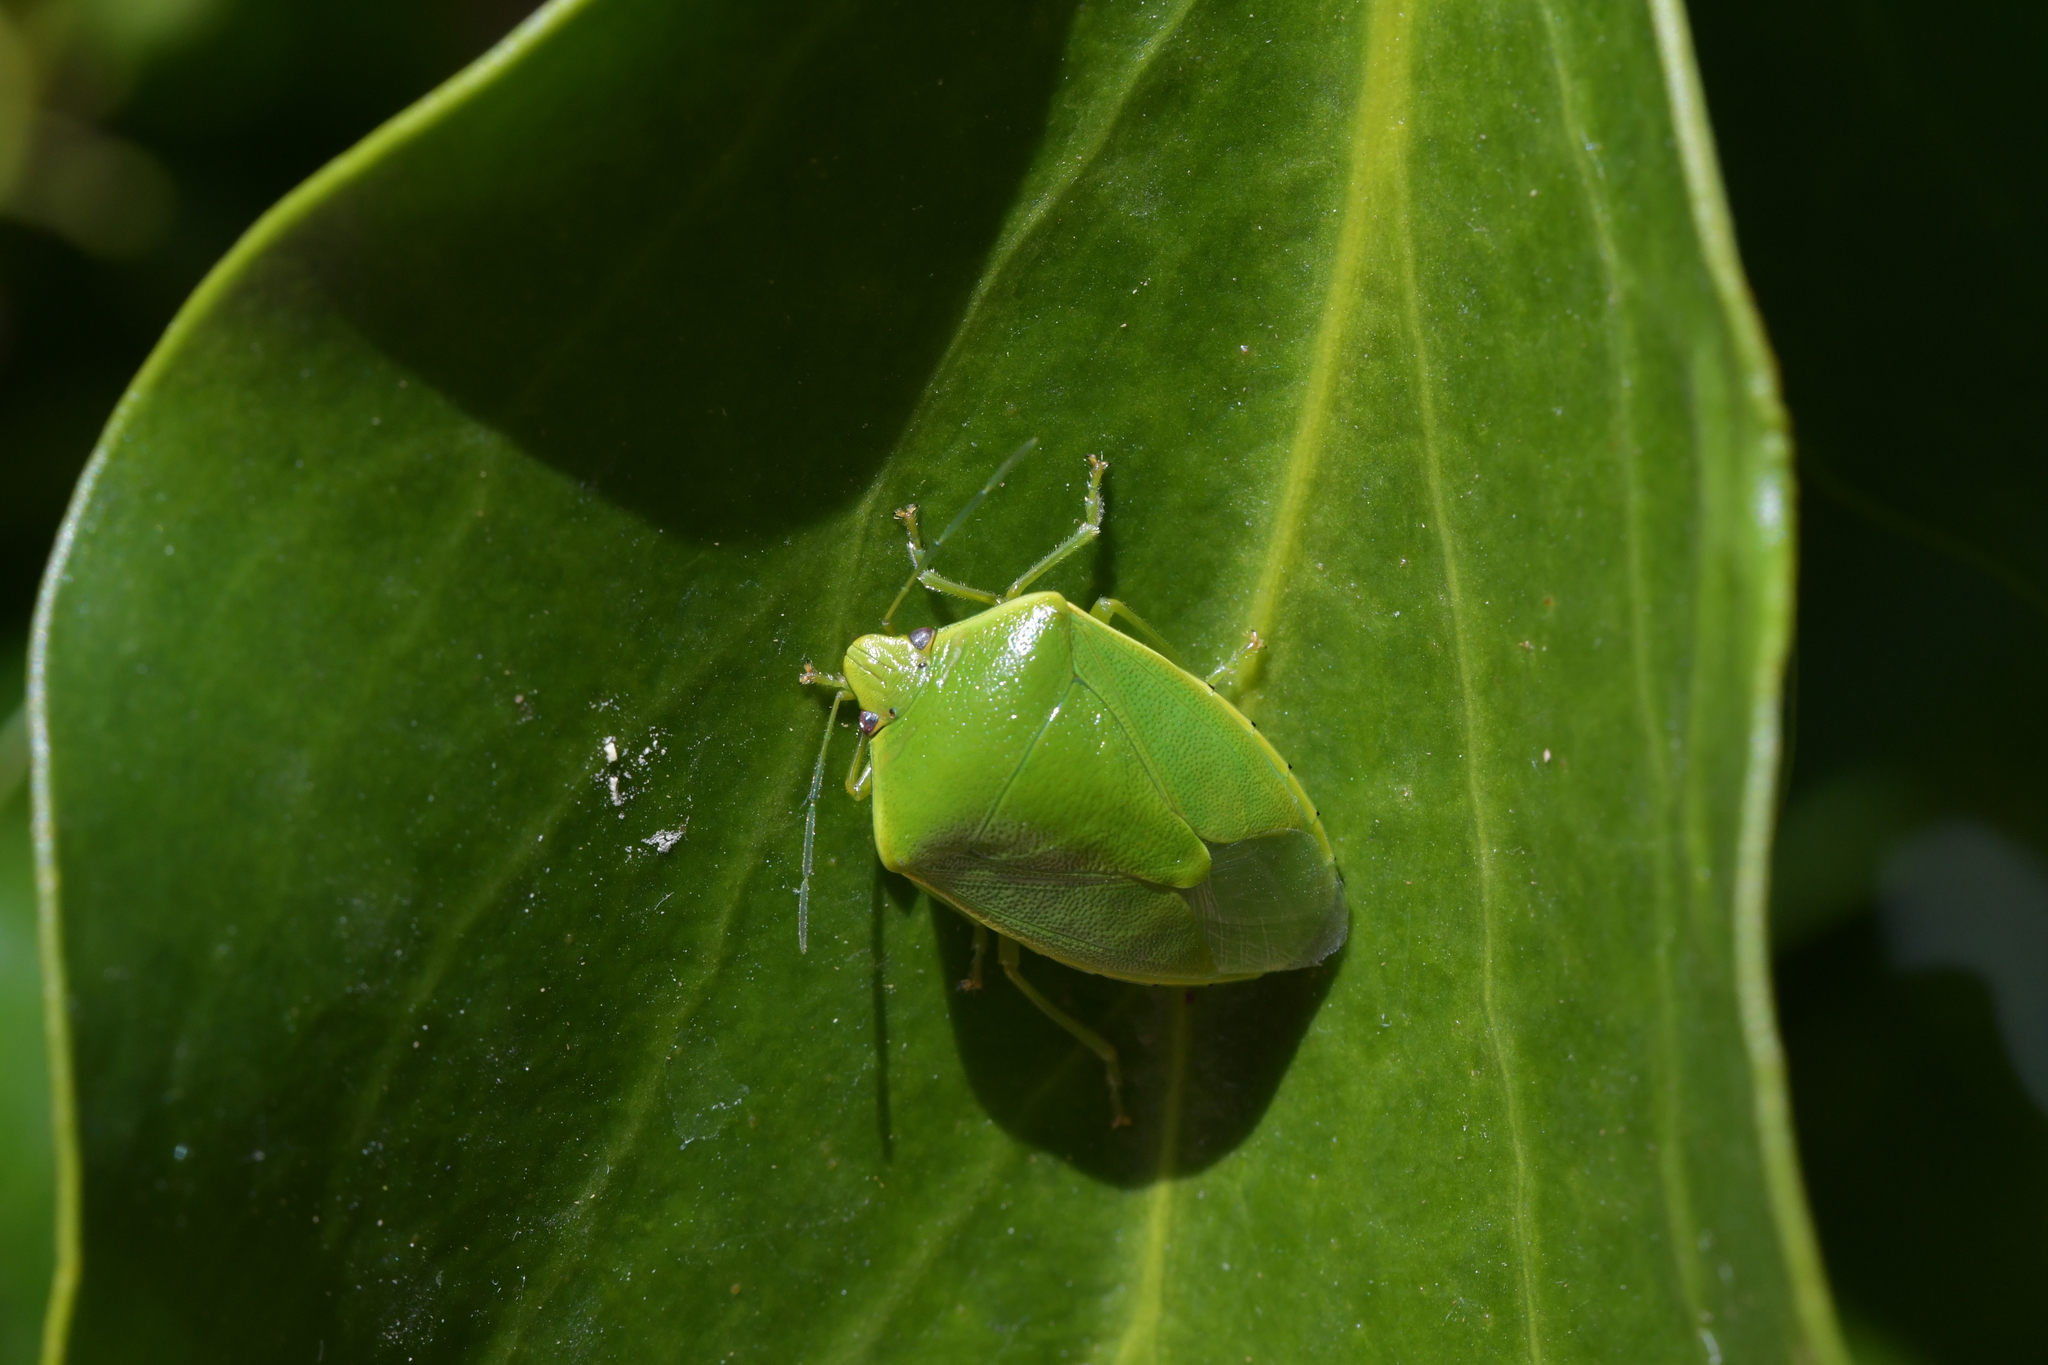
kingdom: Animalia
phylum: Arthropoda
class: Insecta
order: Hemiptera
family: Pentatomidae
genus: Glaucias
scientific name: Glaucias amyota
